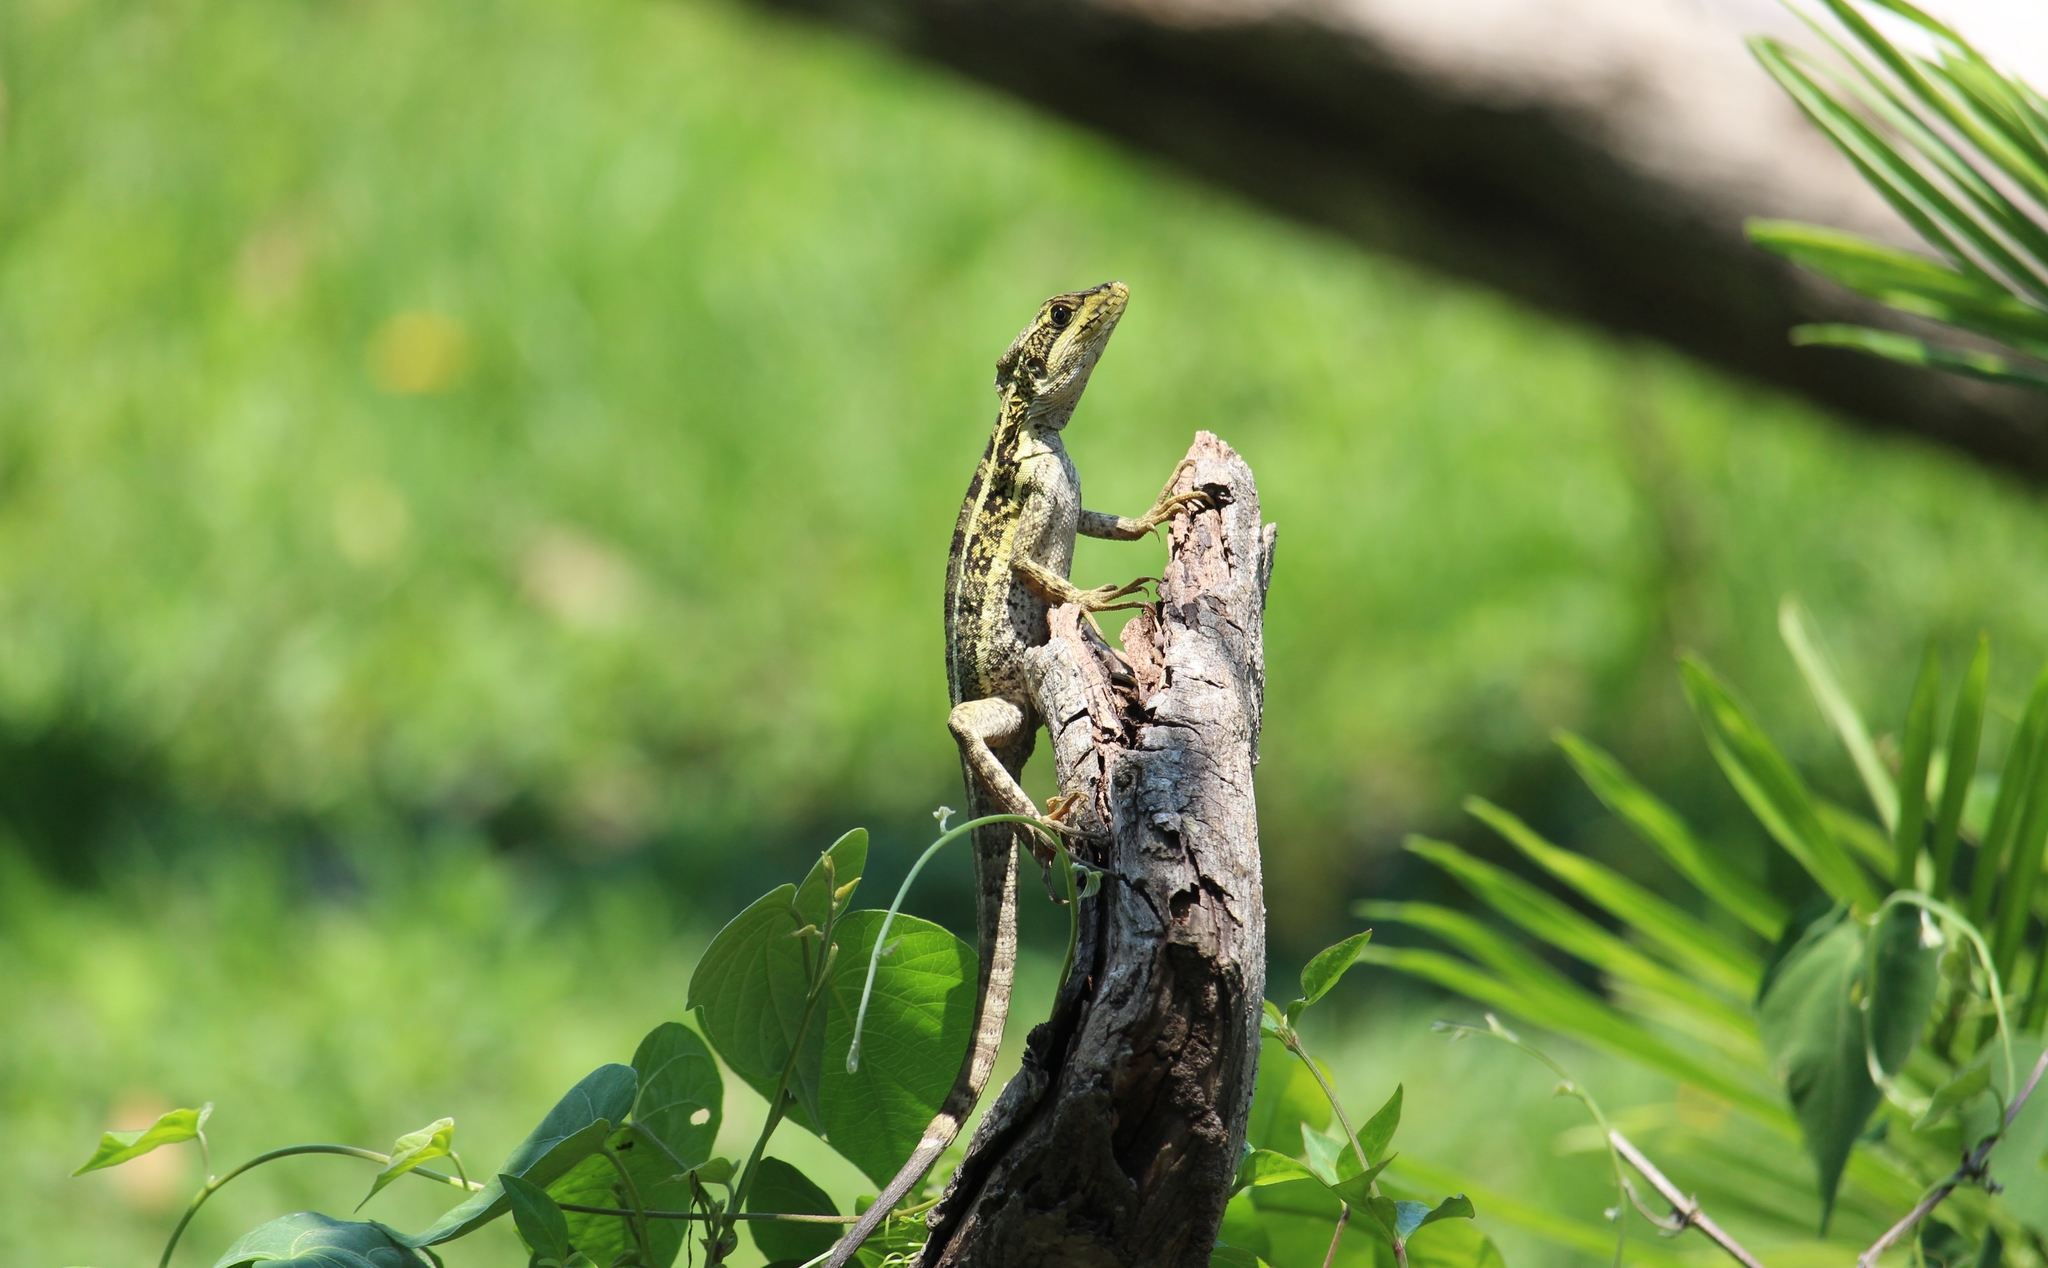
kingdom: Animalia
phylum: Chordata
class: Squamata
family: Corytophanidae
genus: Basiliscus
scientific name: Basiliscus vittatus
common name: Brown basilisk
